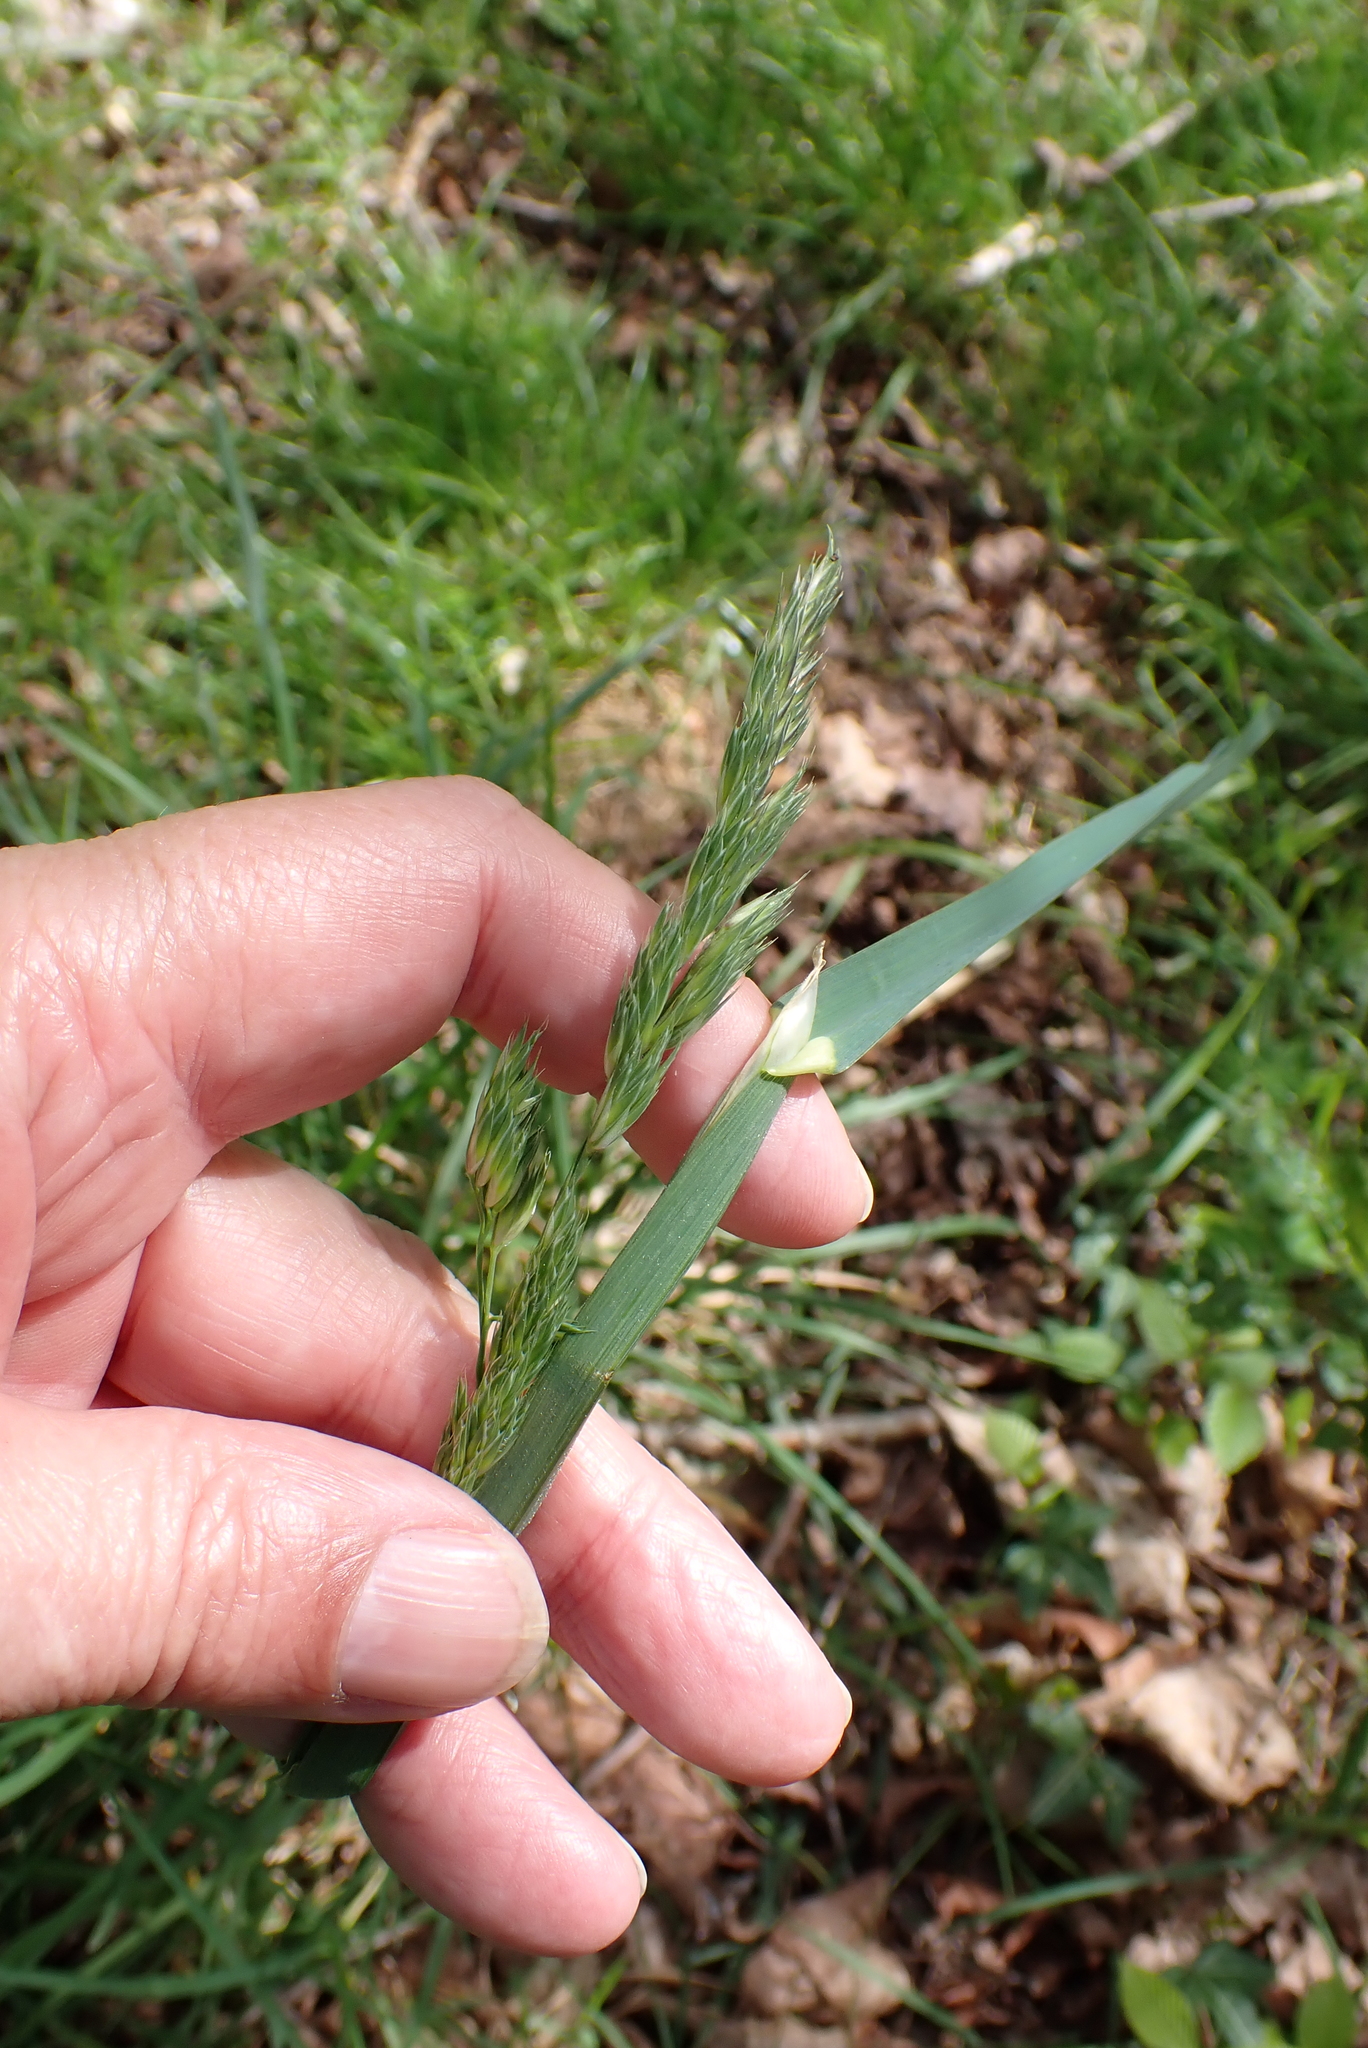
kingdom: Plantae
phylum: Tracheophyta
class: Liliopsida
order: Poales
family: Poaceae
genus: Dactylis
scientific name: Dactylis glomerata
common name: Orchardgrass
